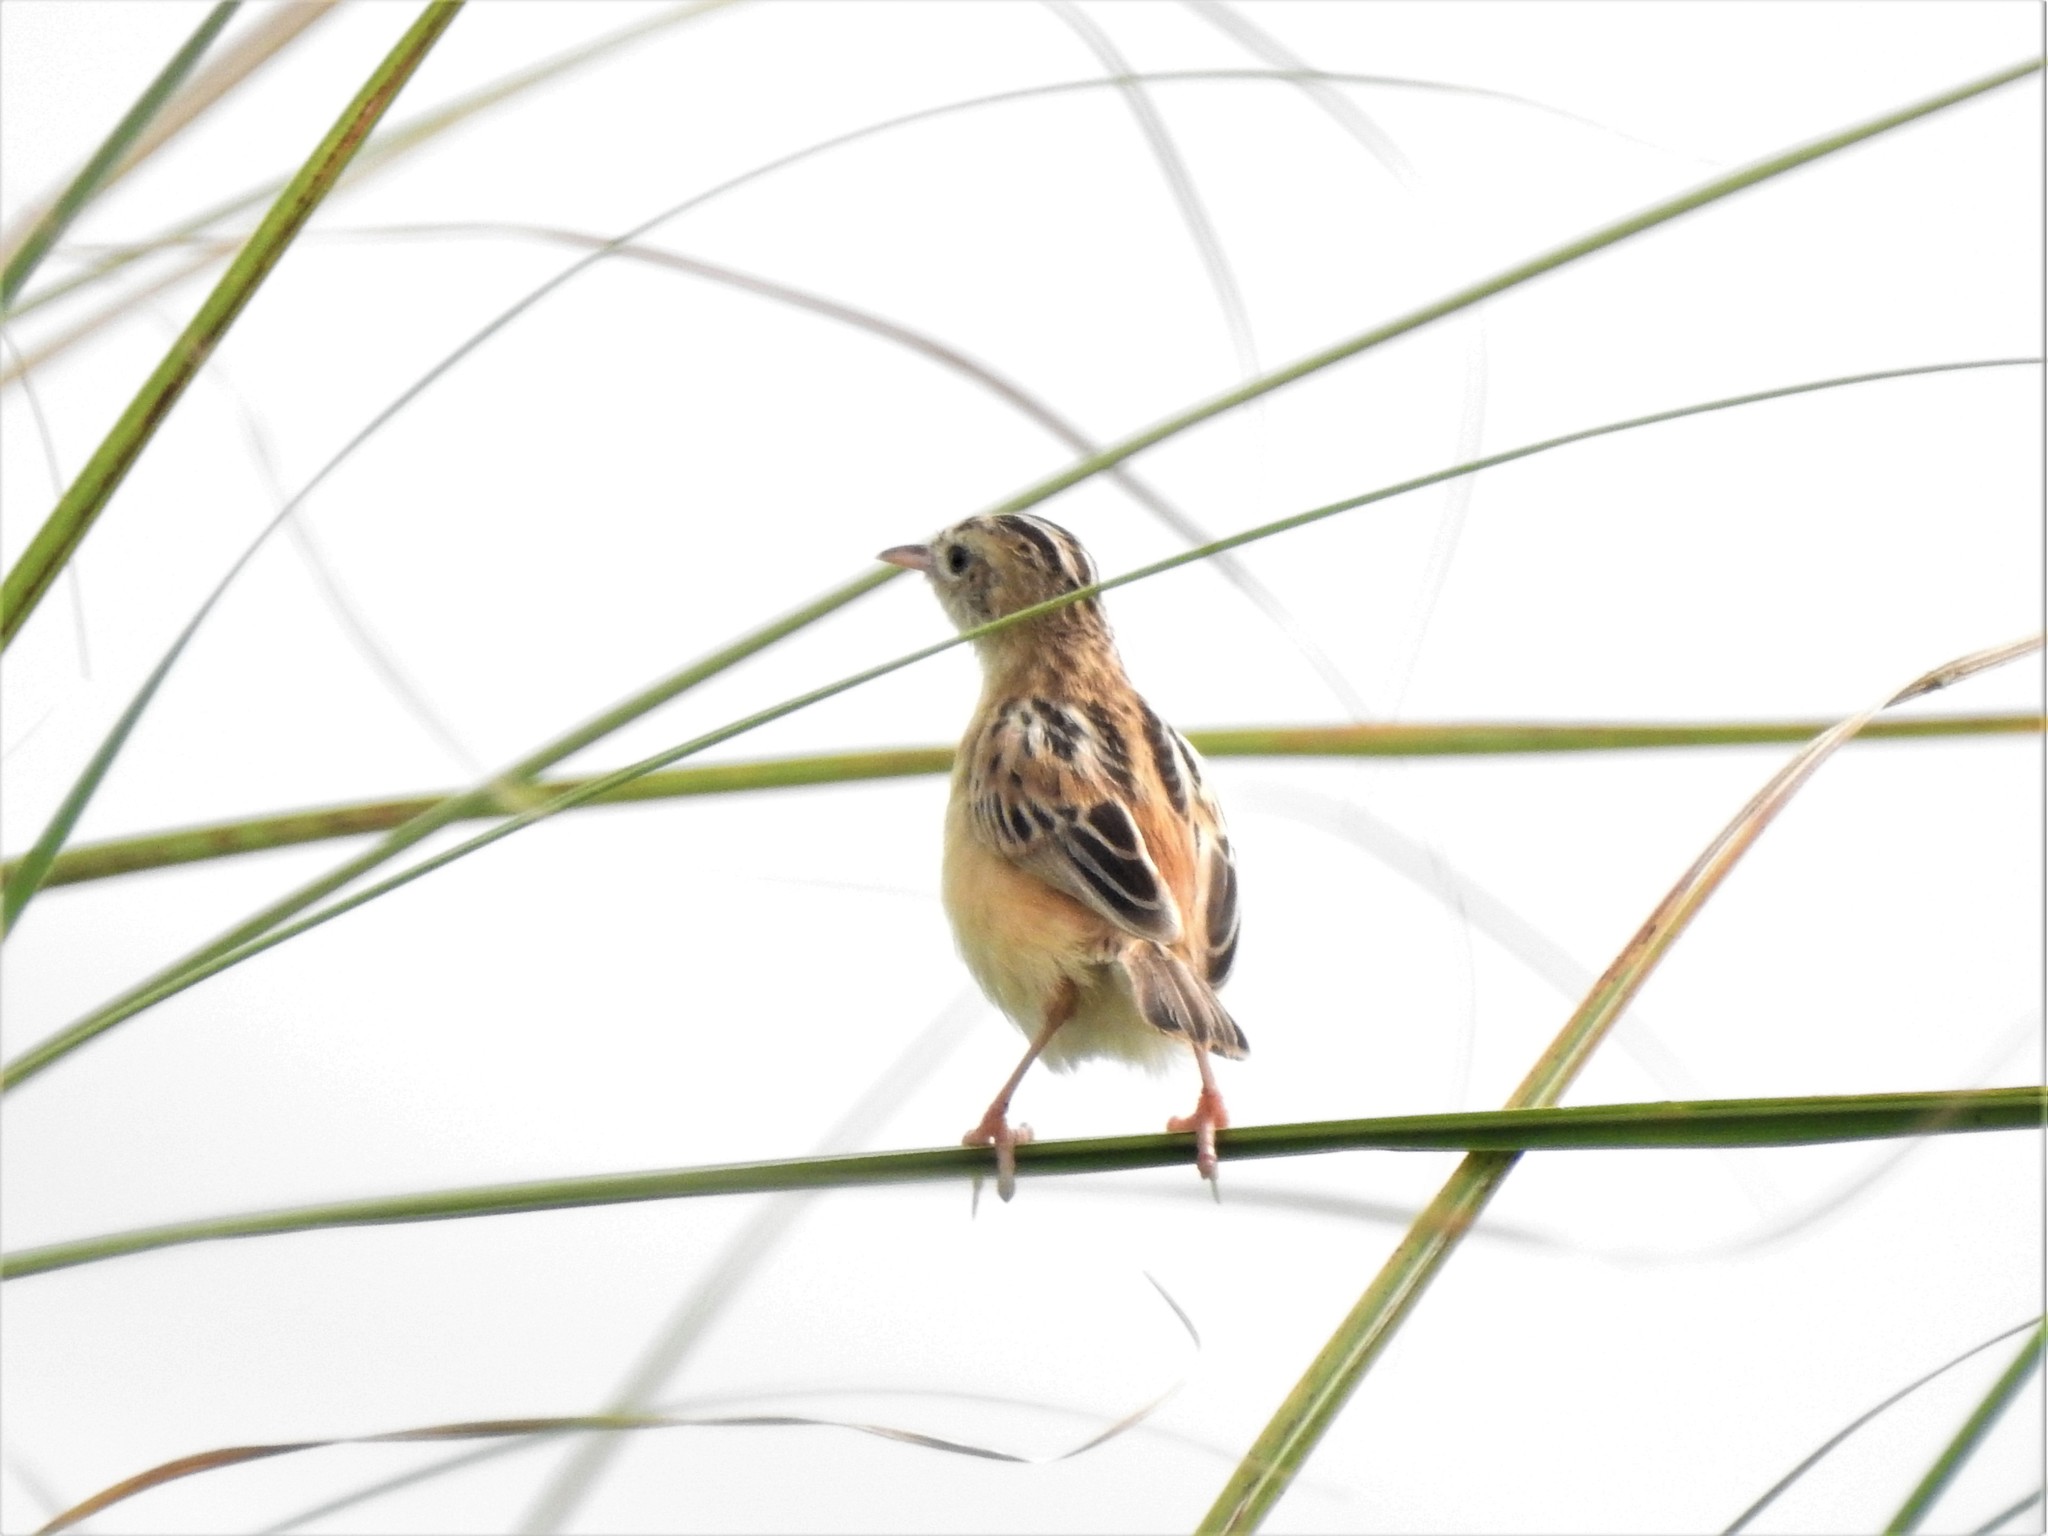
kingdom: Animalia
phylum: Chordata
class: Aves
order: Passeriformes
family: Cisticolidae
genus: Cisticola
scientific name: Cisticola juncidis
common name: Zitting cisticola
